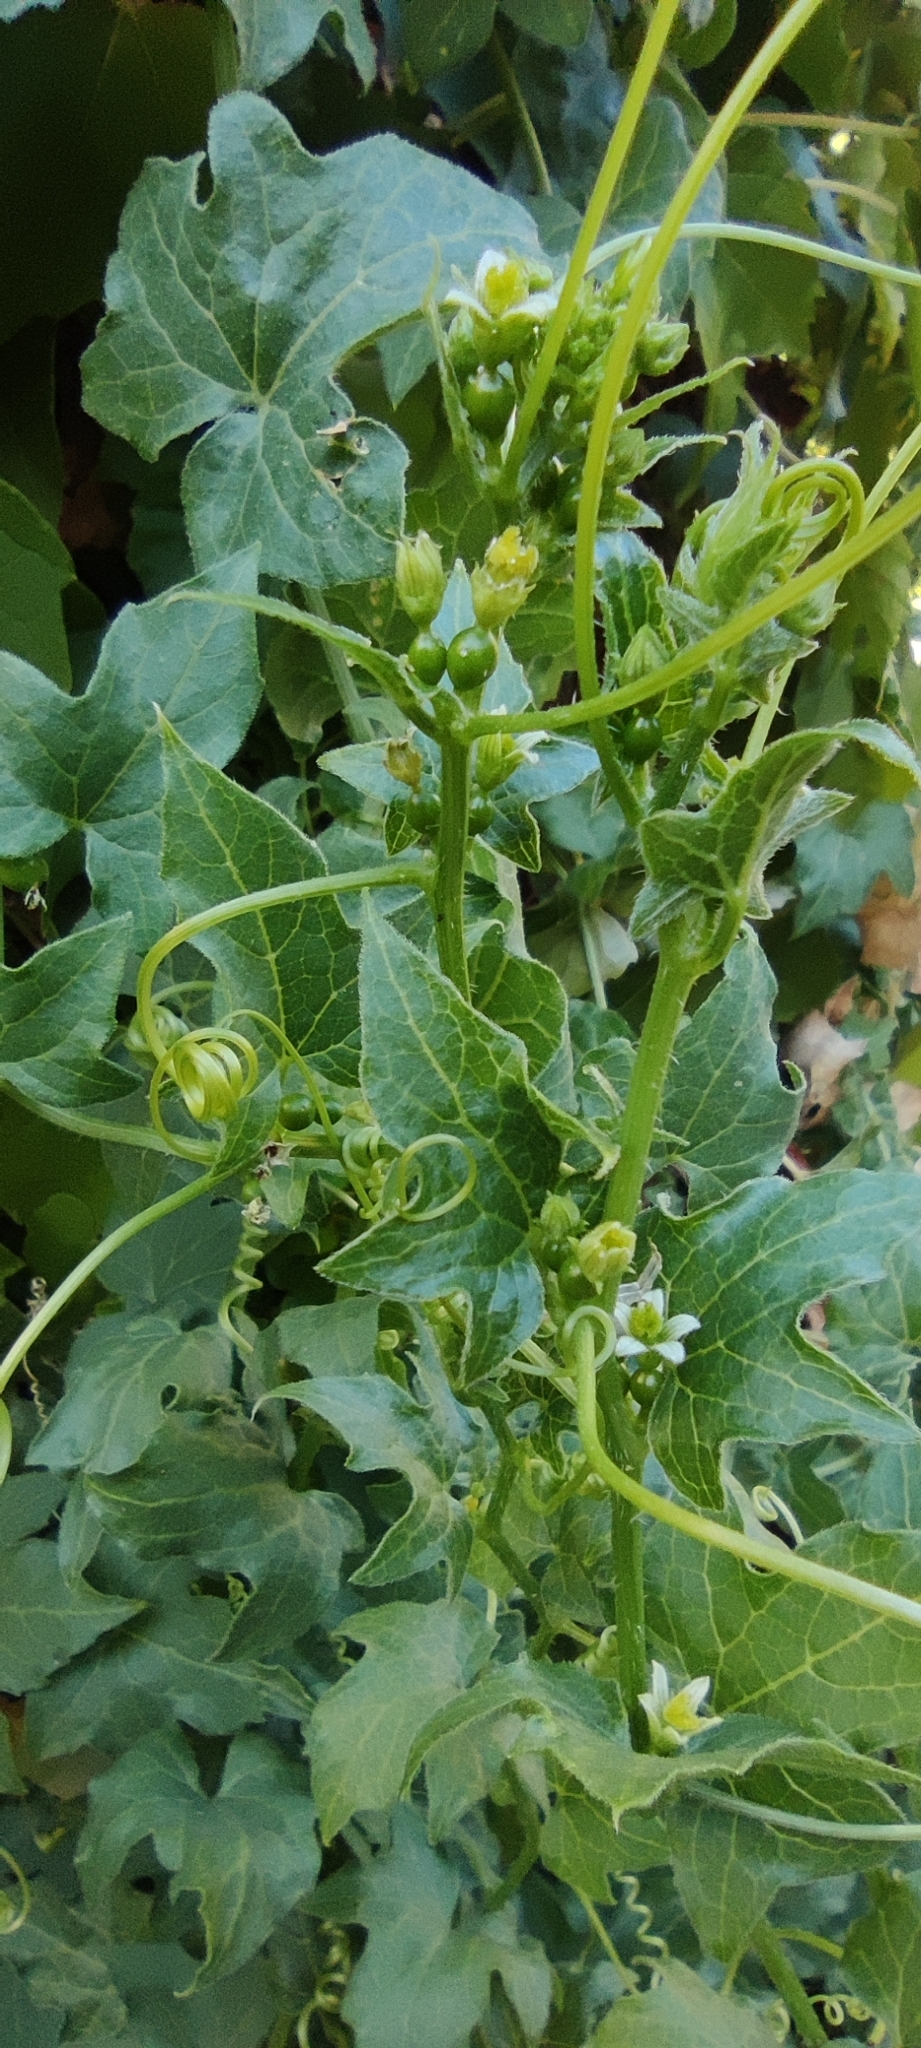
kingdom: Plantae
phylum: Tracheophyta
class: Magnoliopsida
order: Cucurbitales
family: Cucurbitaceae
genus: Bryonia
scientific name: Bryonia cretica
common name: Cretan bryony
